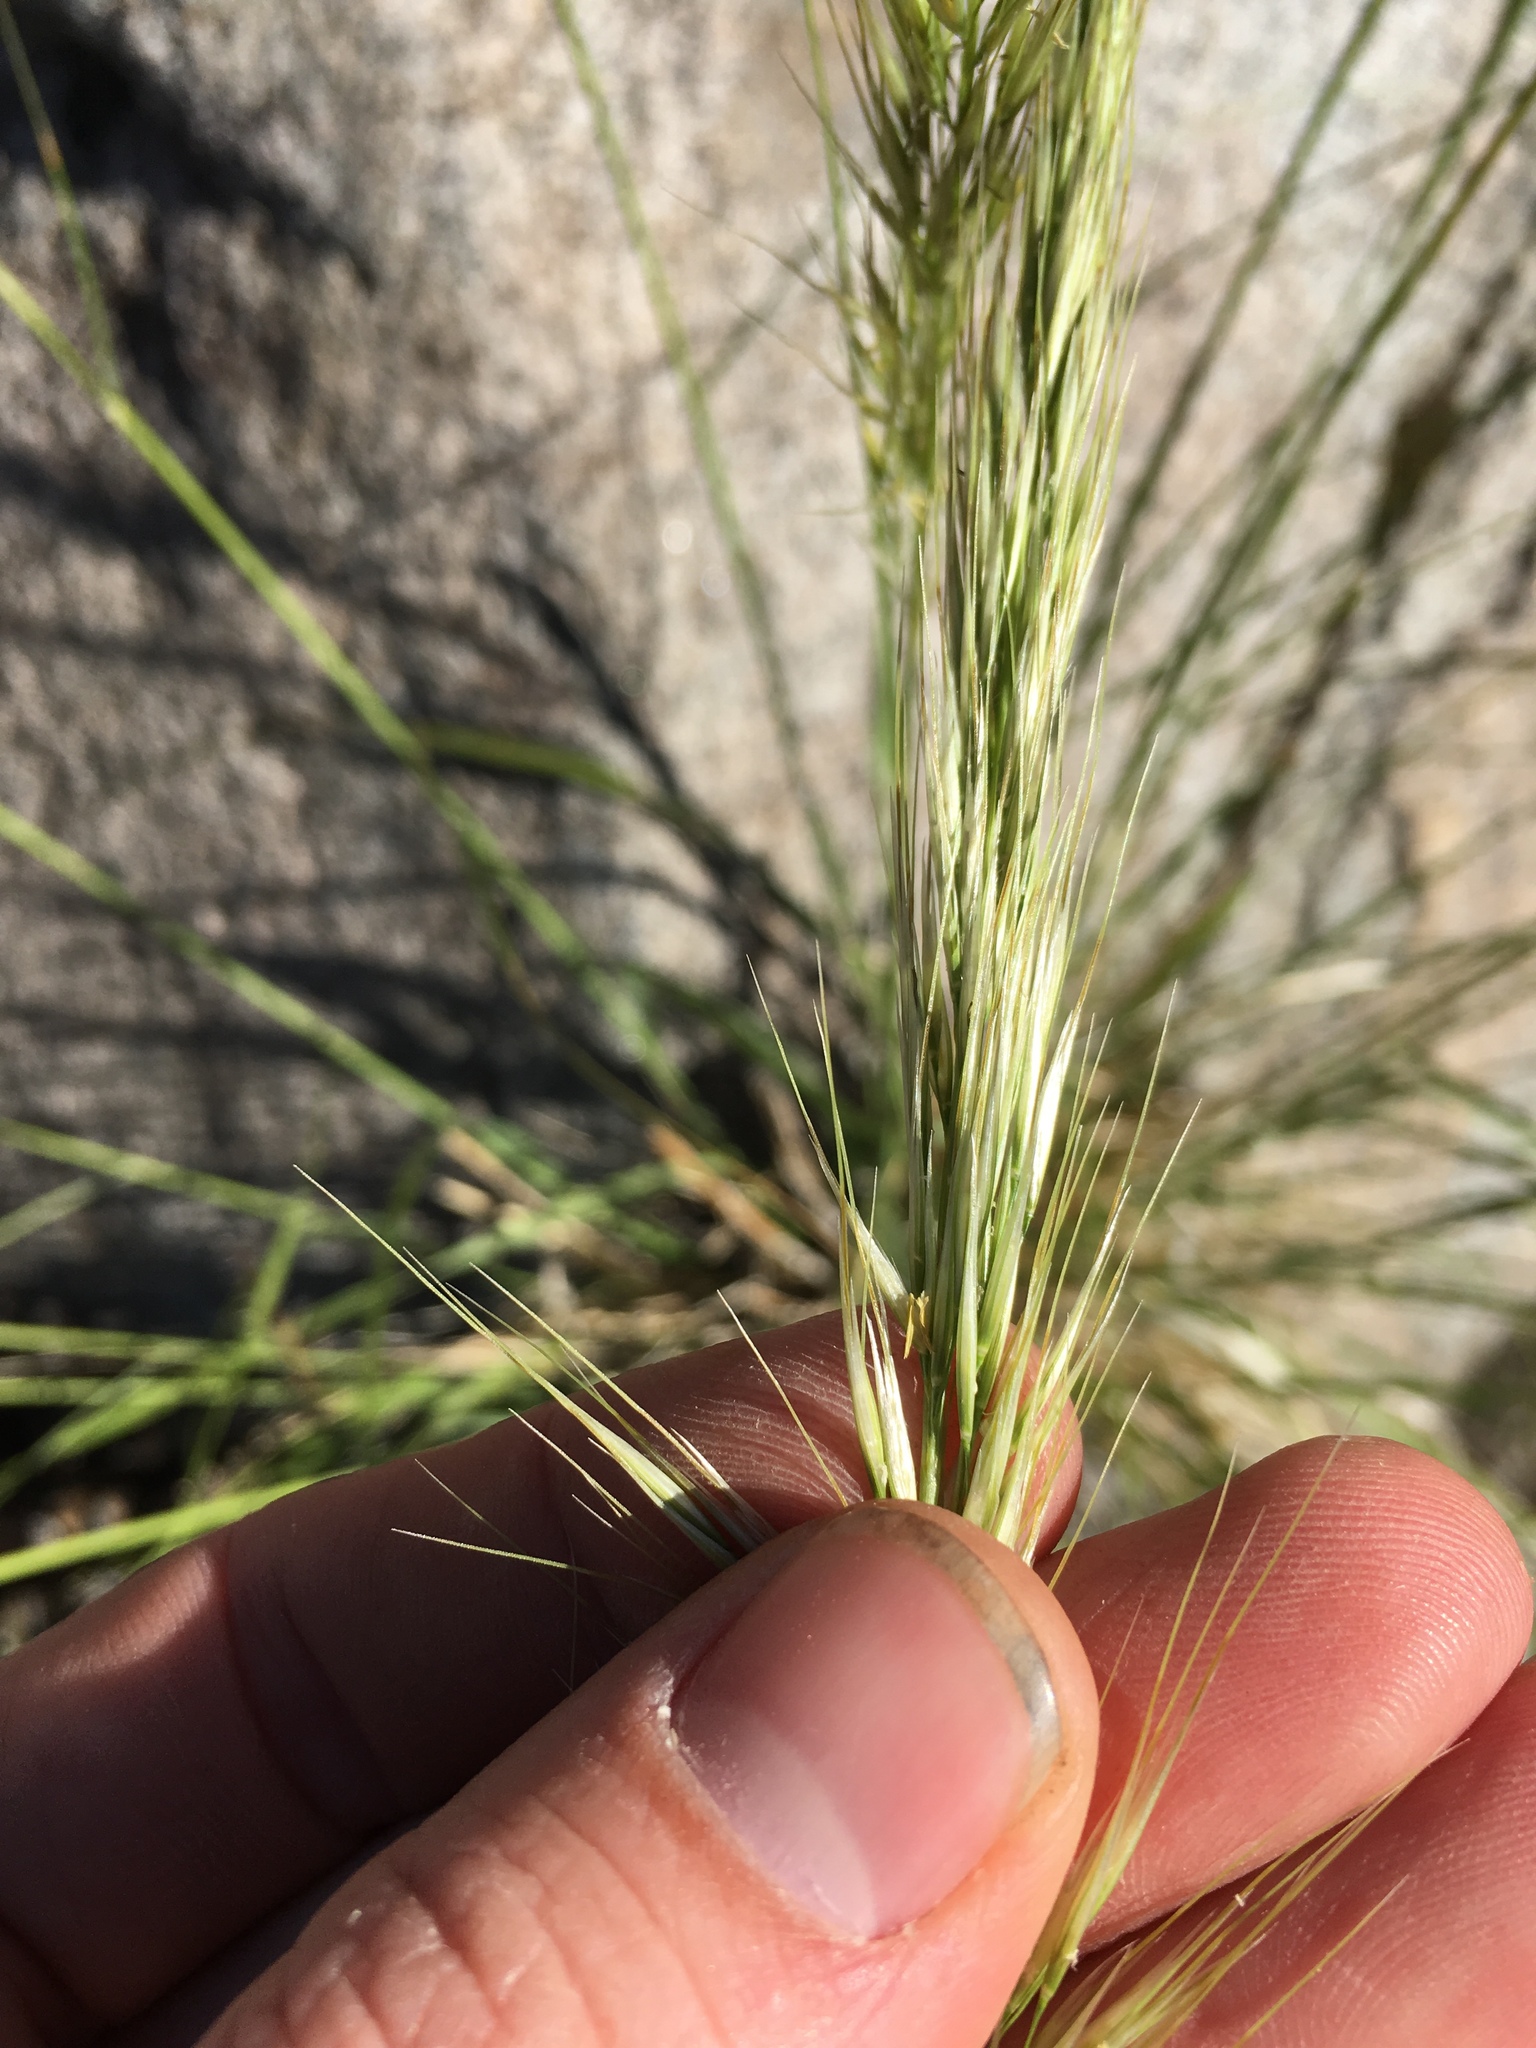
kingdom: Plantae
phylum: Tracheophyta
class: Liliopsida
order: Poales
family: Poaceae
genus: Eriocoma
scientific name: Eriocoma parishii
